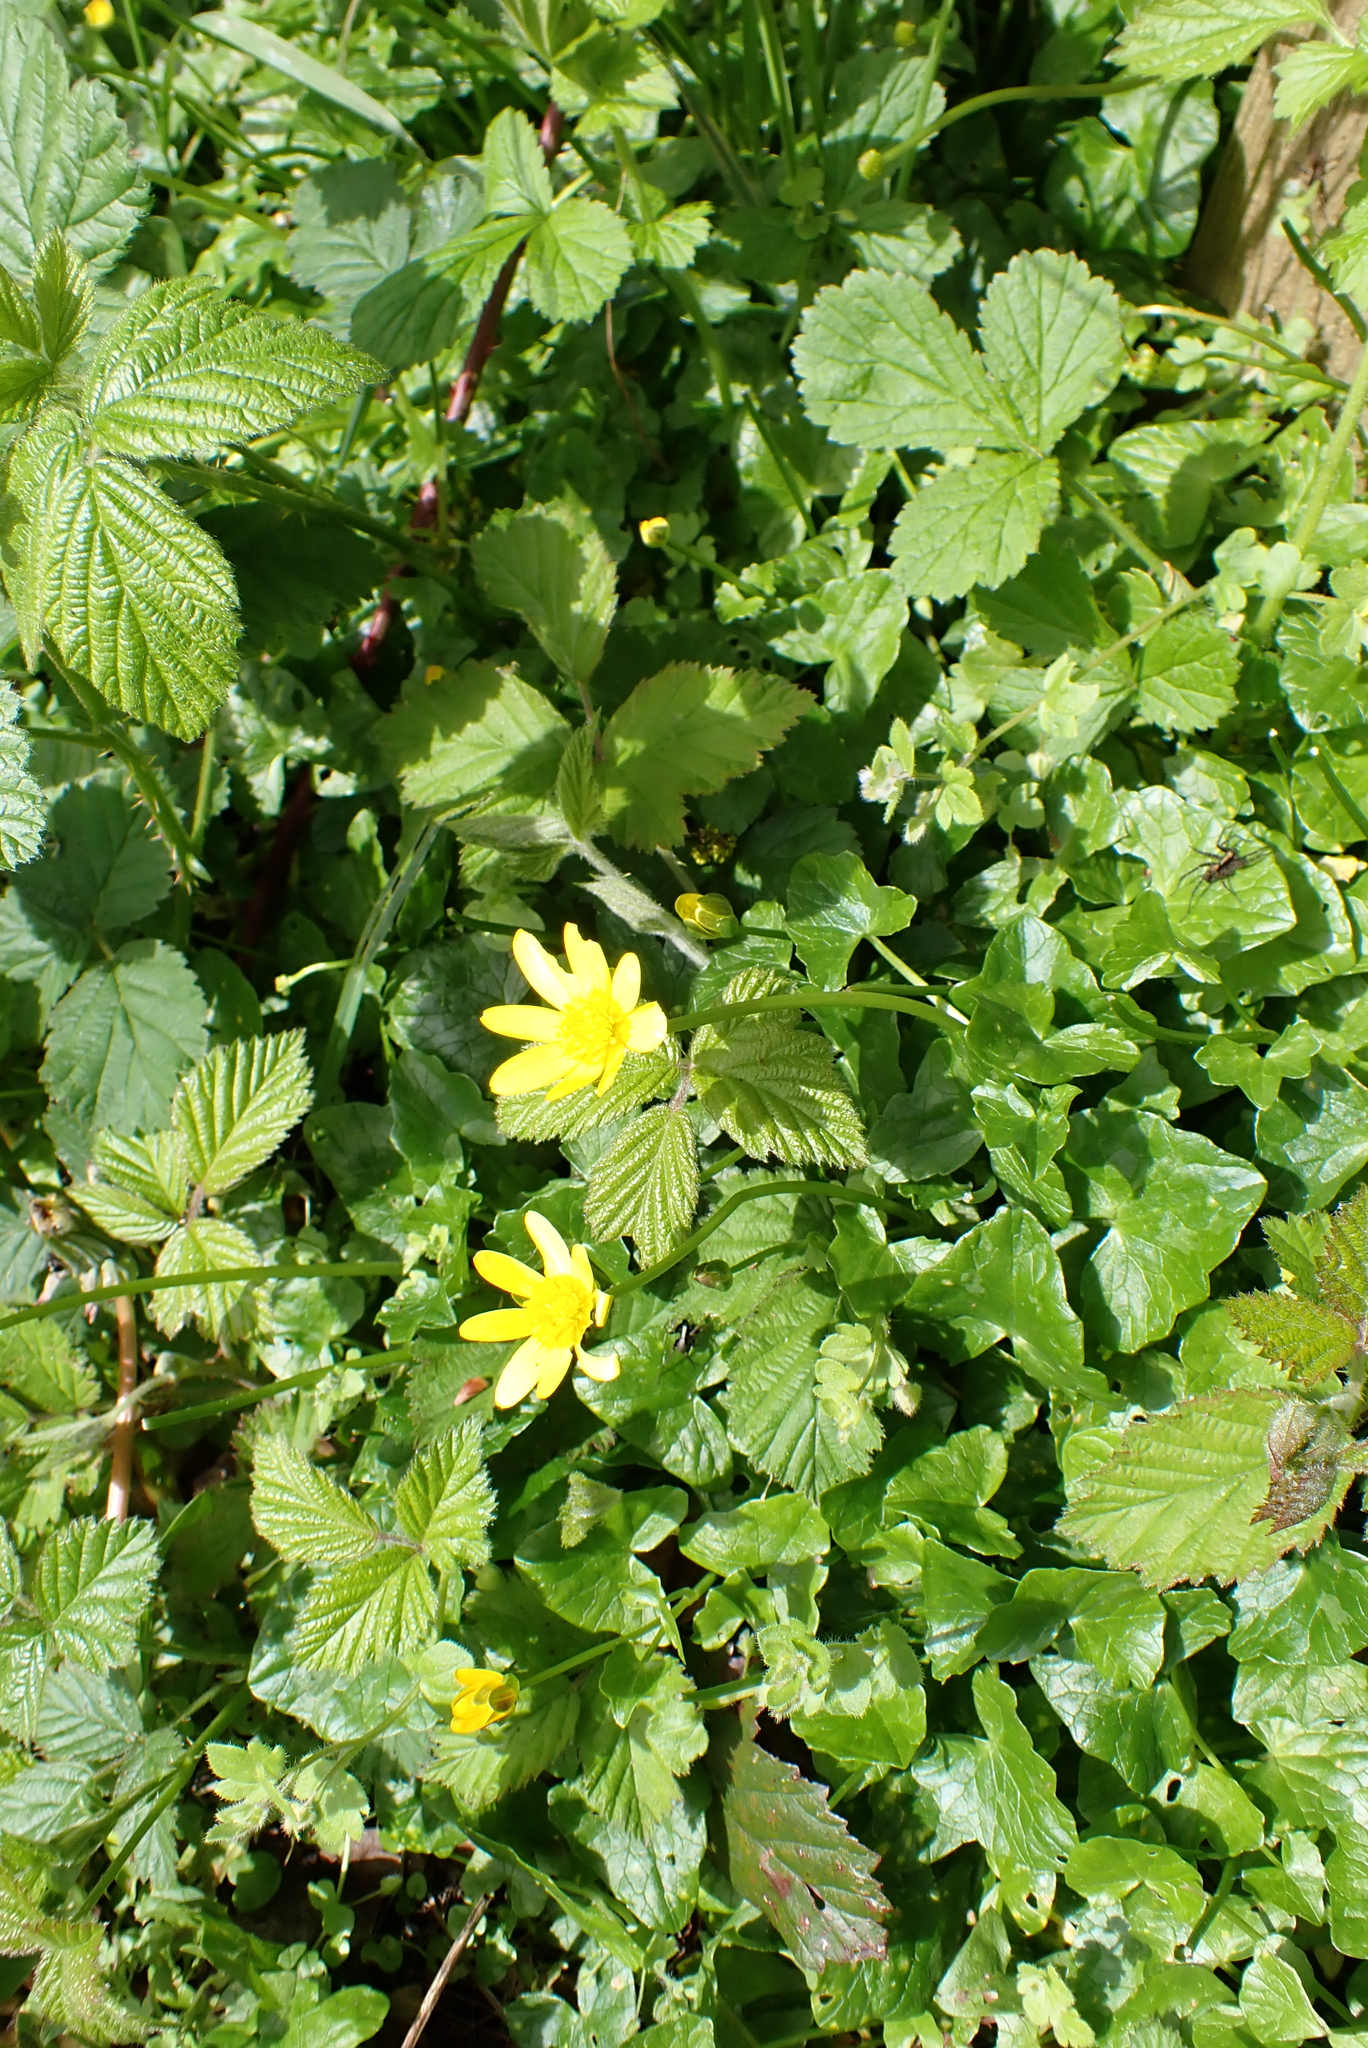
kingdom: Plantae
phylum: Tracheophyta
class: Magnoliopsida
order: Ranunculales
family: Ranunculaceae
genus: Ficaria
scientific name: Ficaria verna
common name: Lesser celandine
